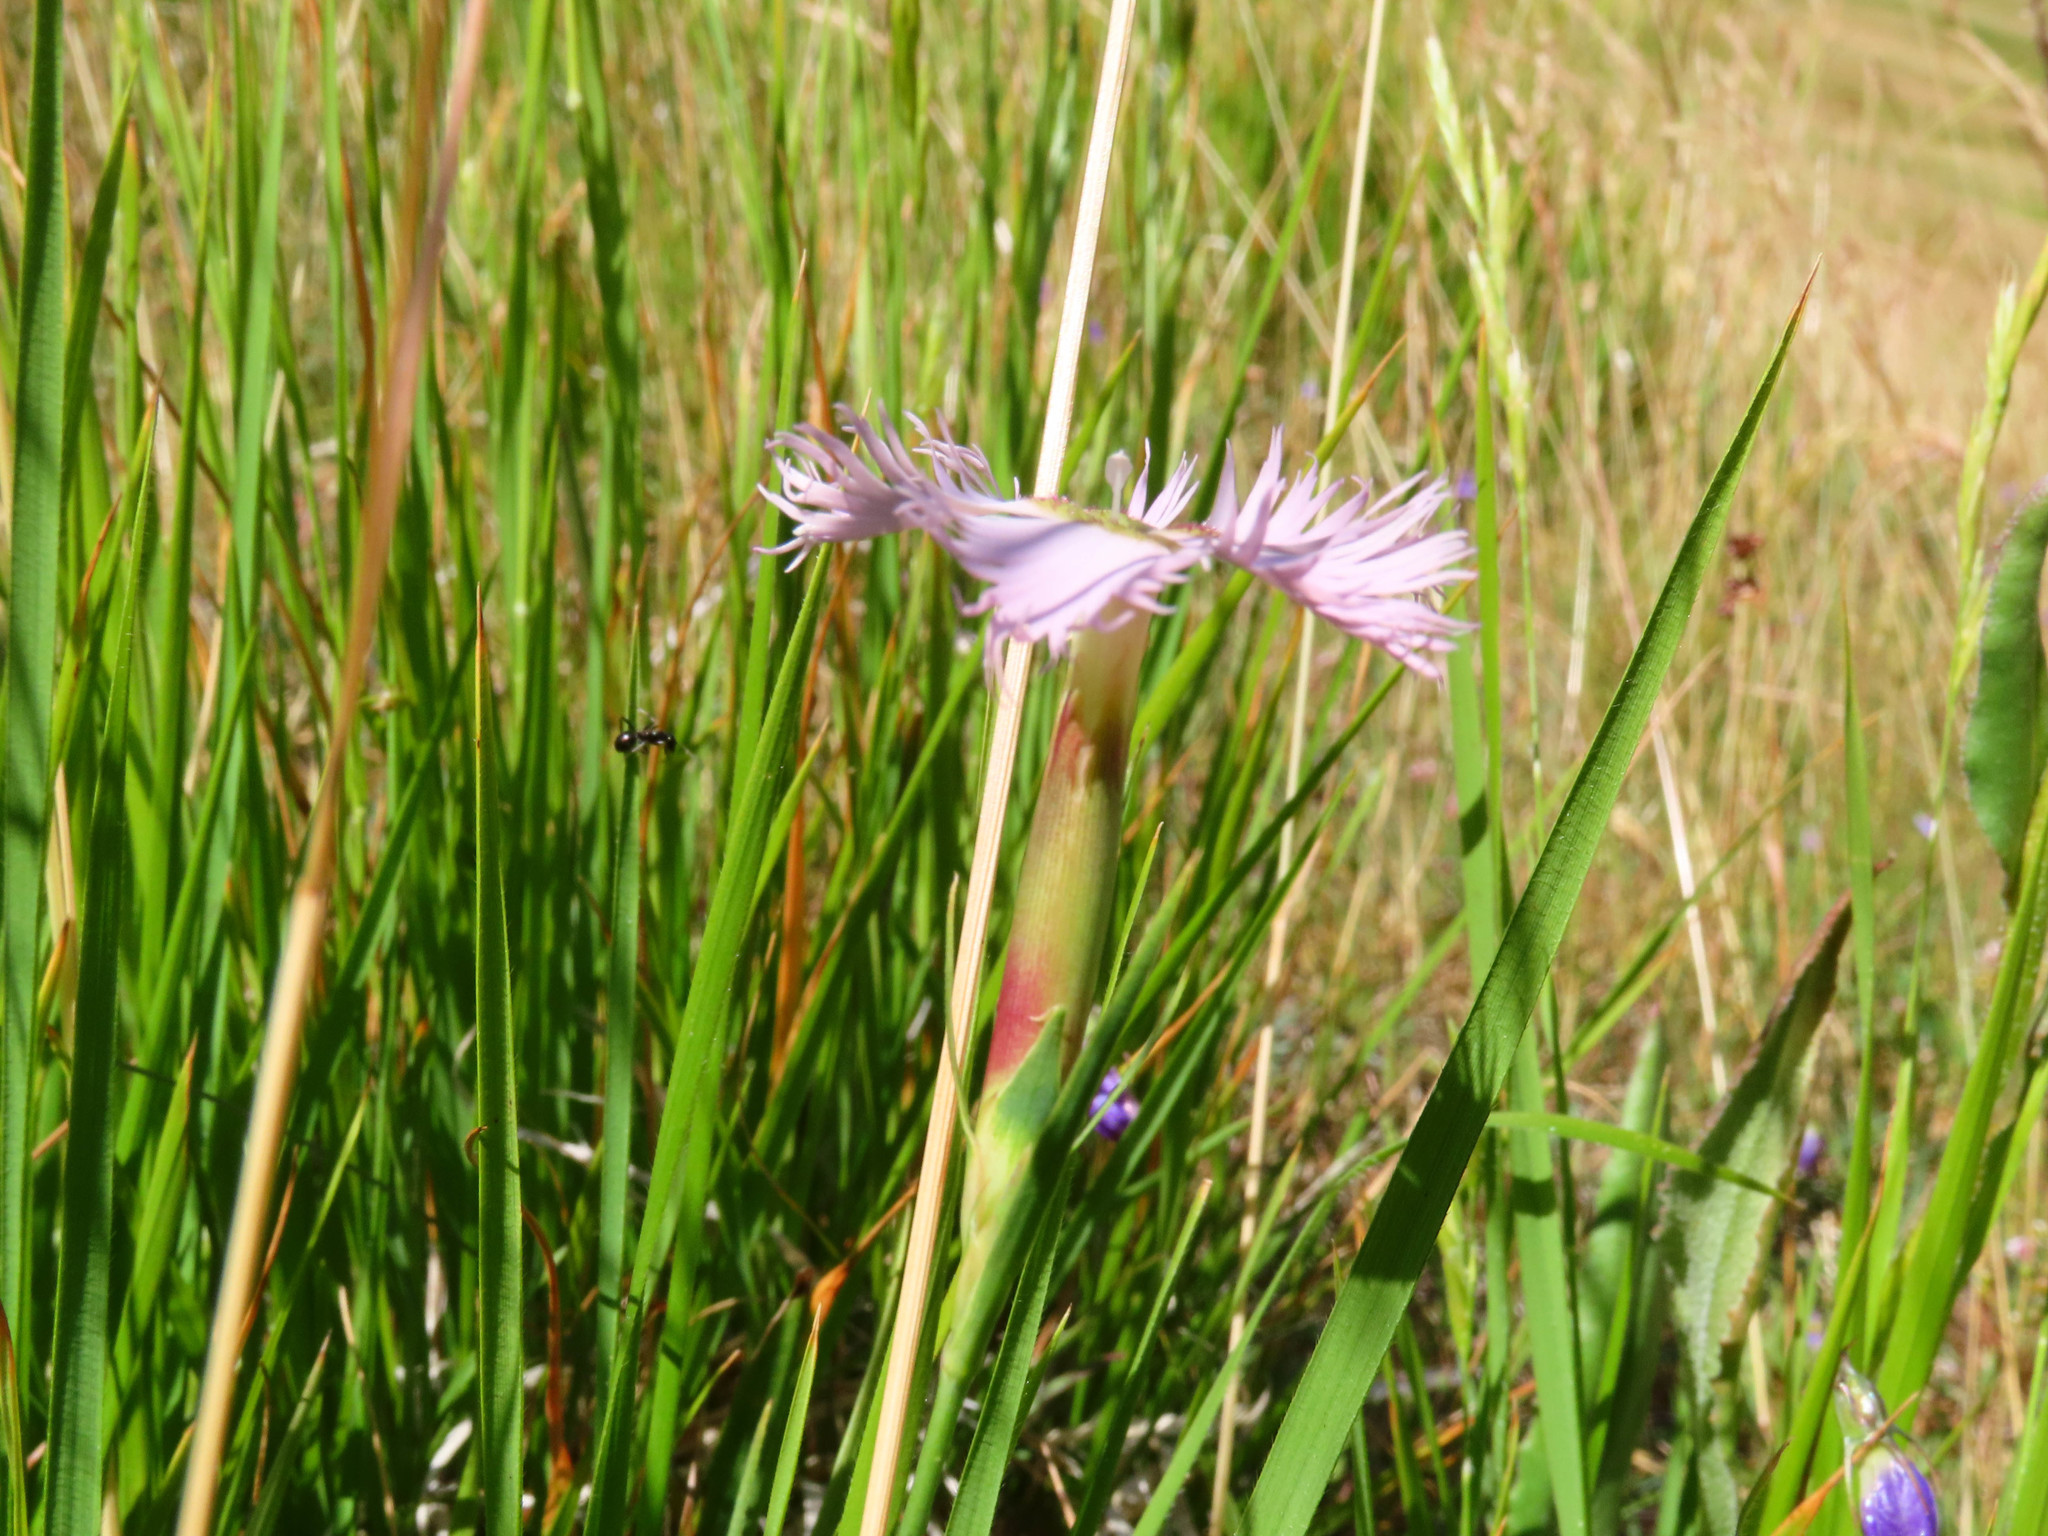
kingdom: Plantae
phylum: Tracheophyta
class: Magnoliopsida
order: Caryophyllales
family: Caryophyllaceae
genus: Dianthus
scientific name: Dianthus hyssopifolius
